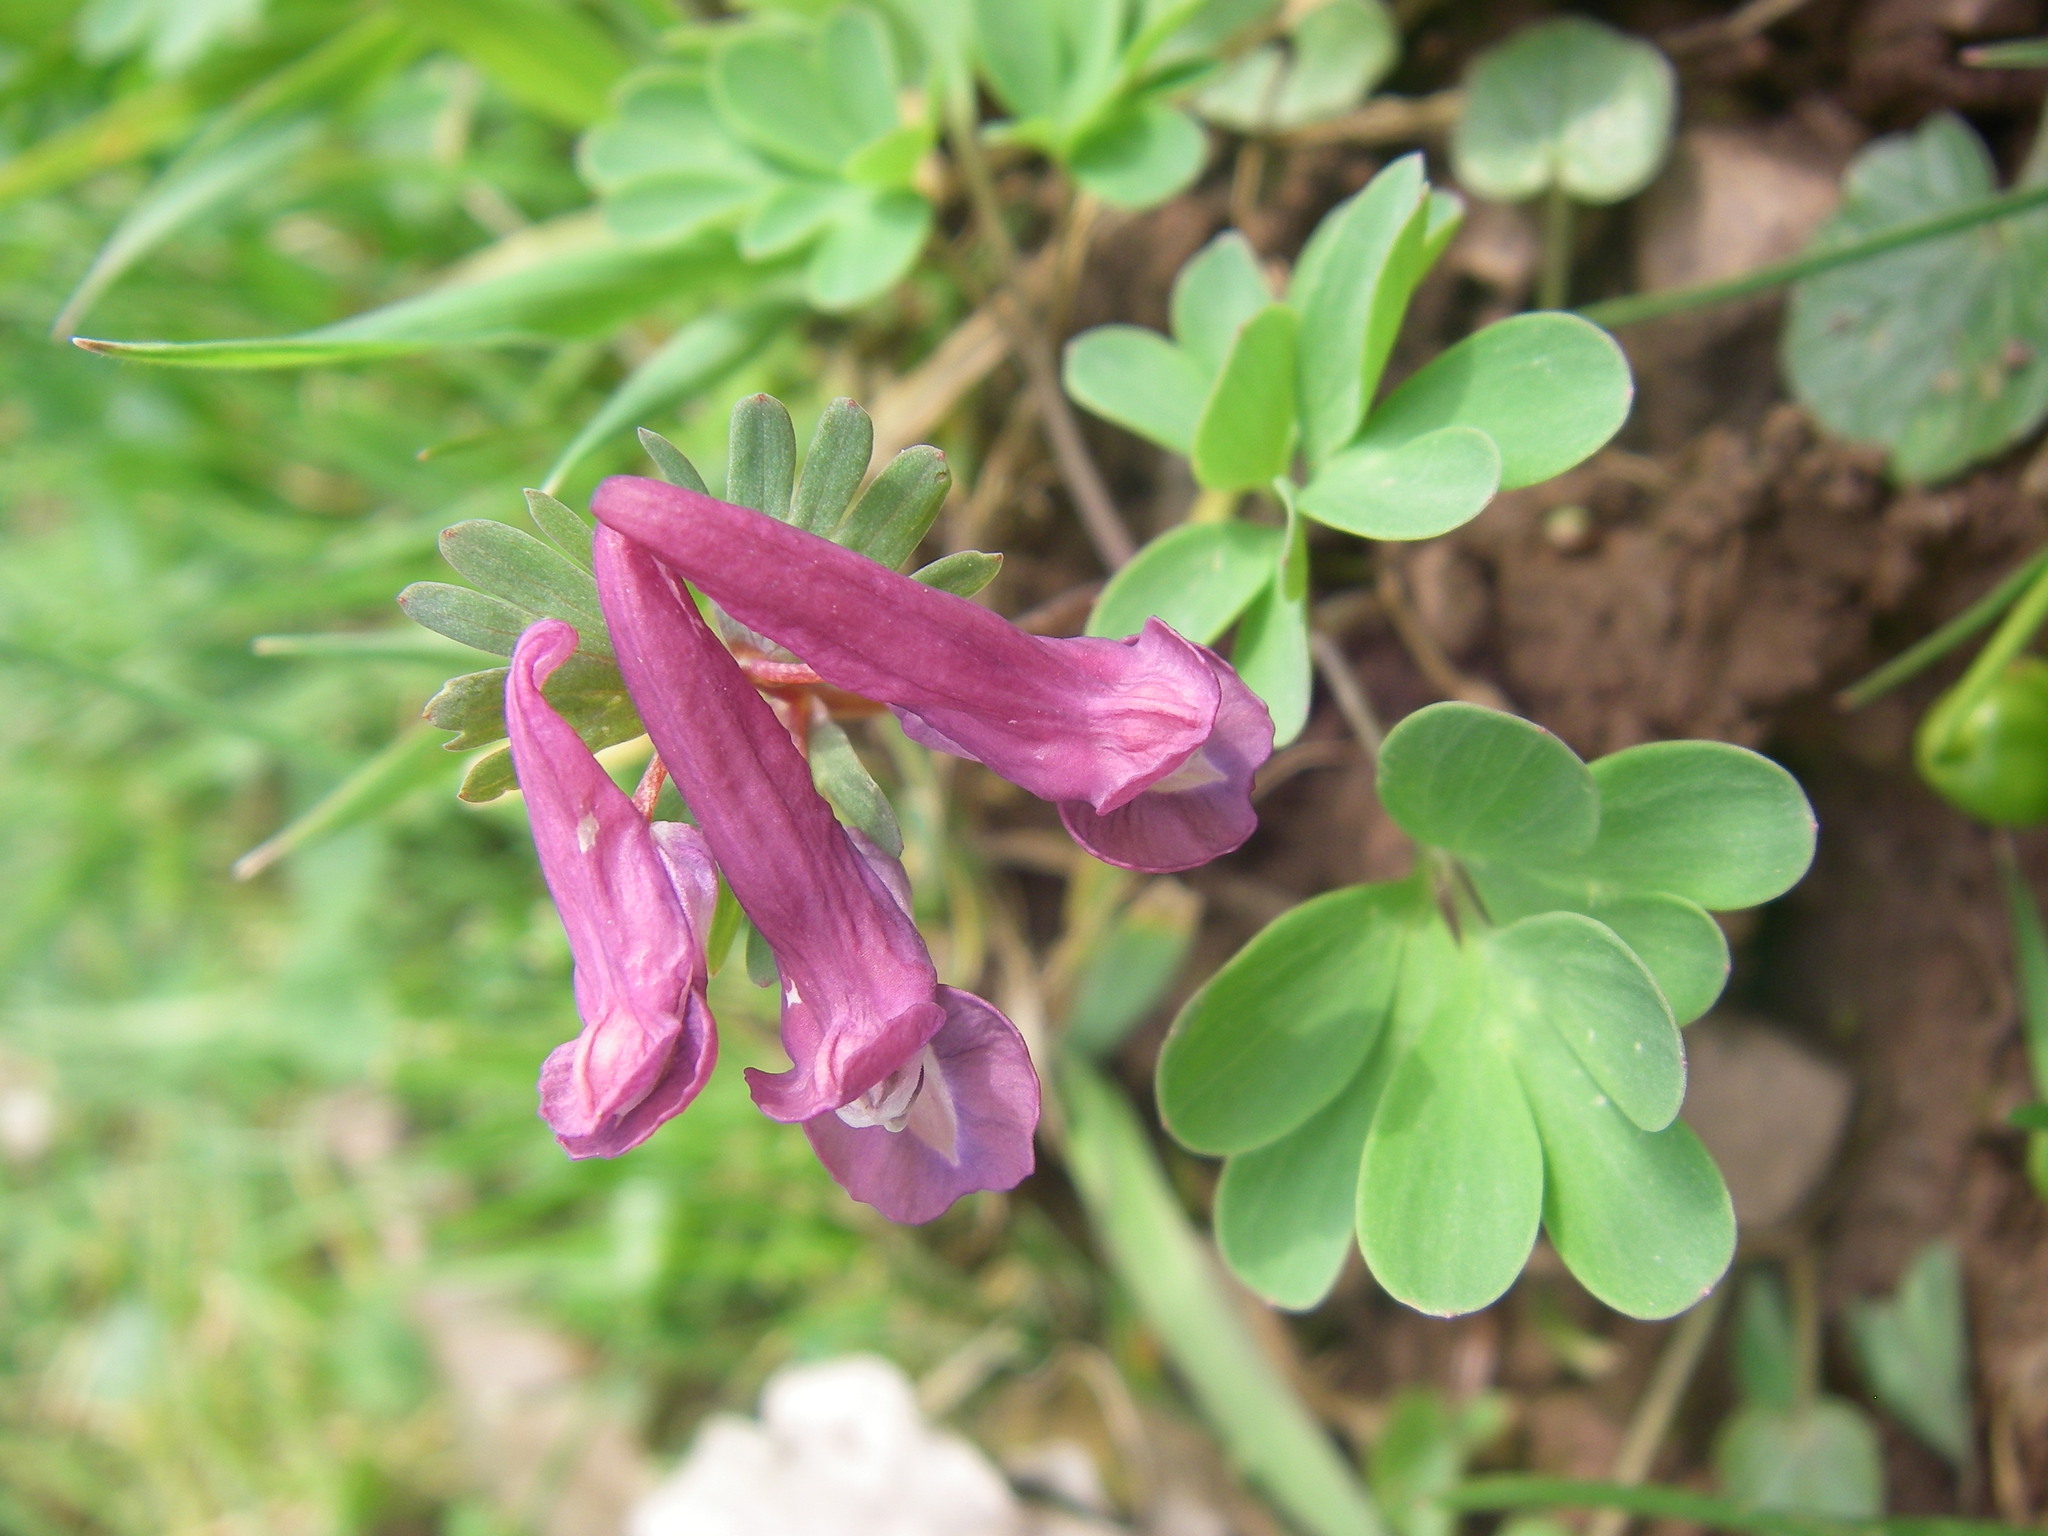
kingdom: Plantae
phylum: Tracheophyta
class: Magnoliopsida
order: Ranunculales
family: Papaveraceae
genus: Corydalis
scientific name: Corydalis solida
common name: Bird-in-a-bush
